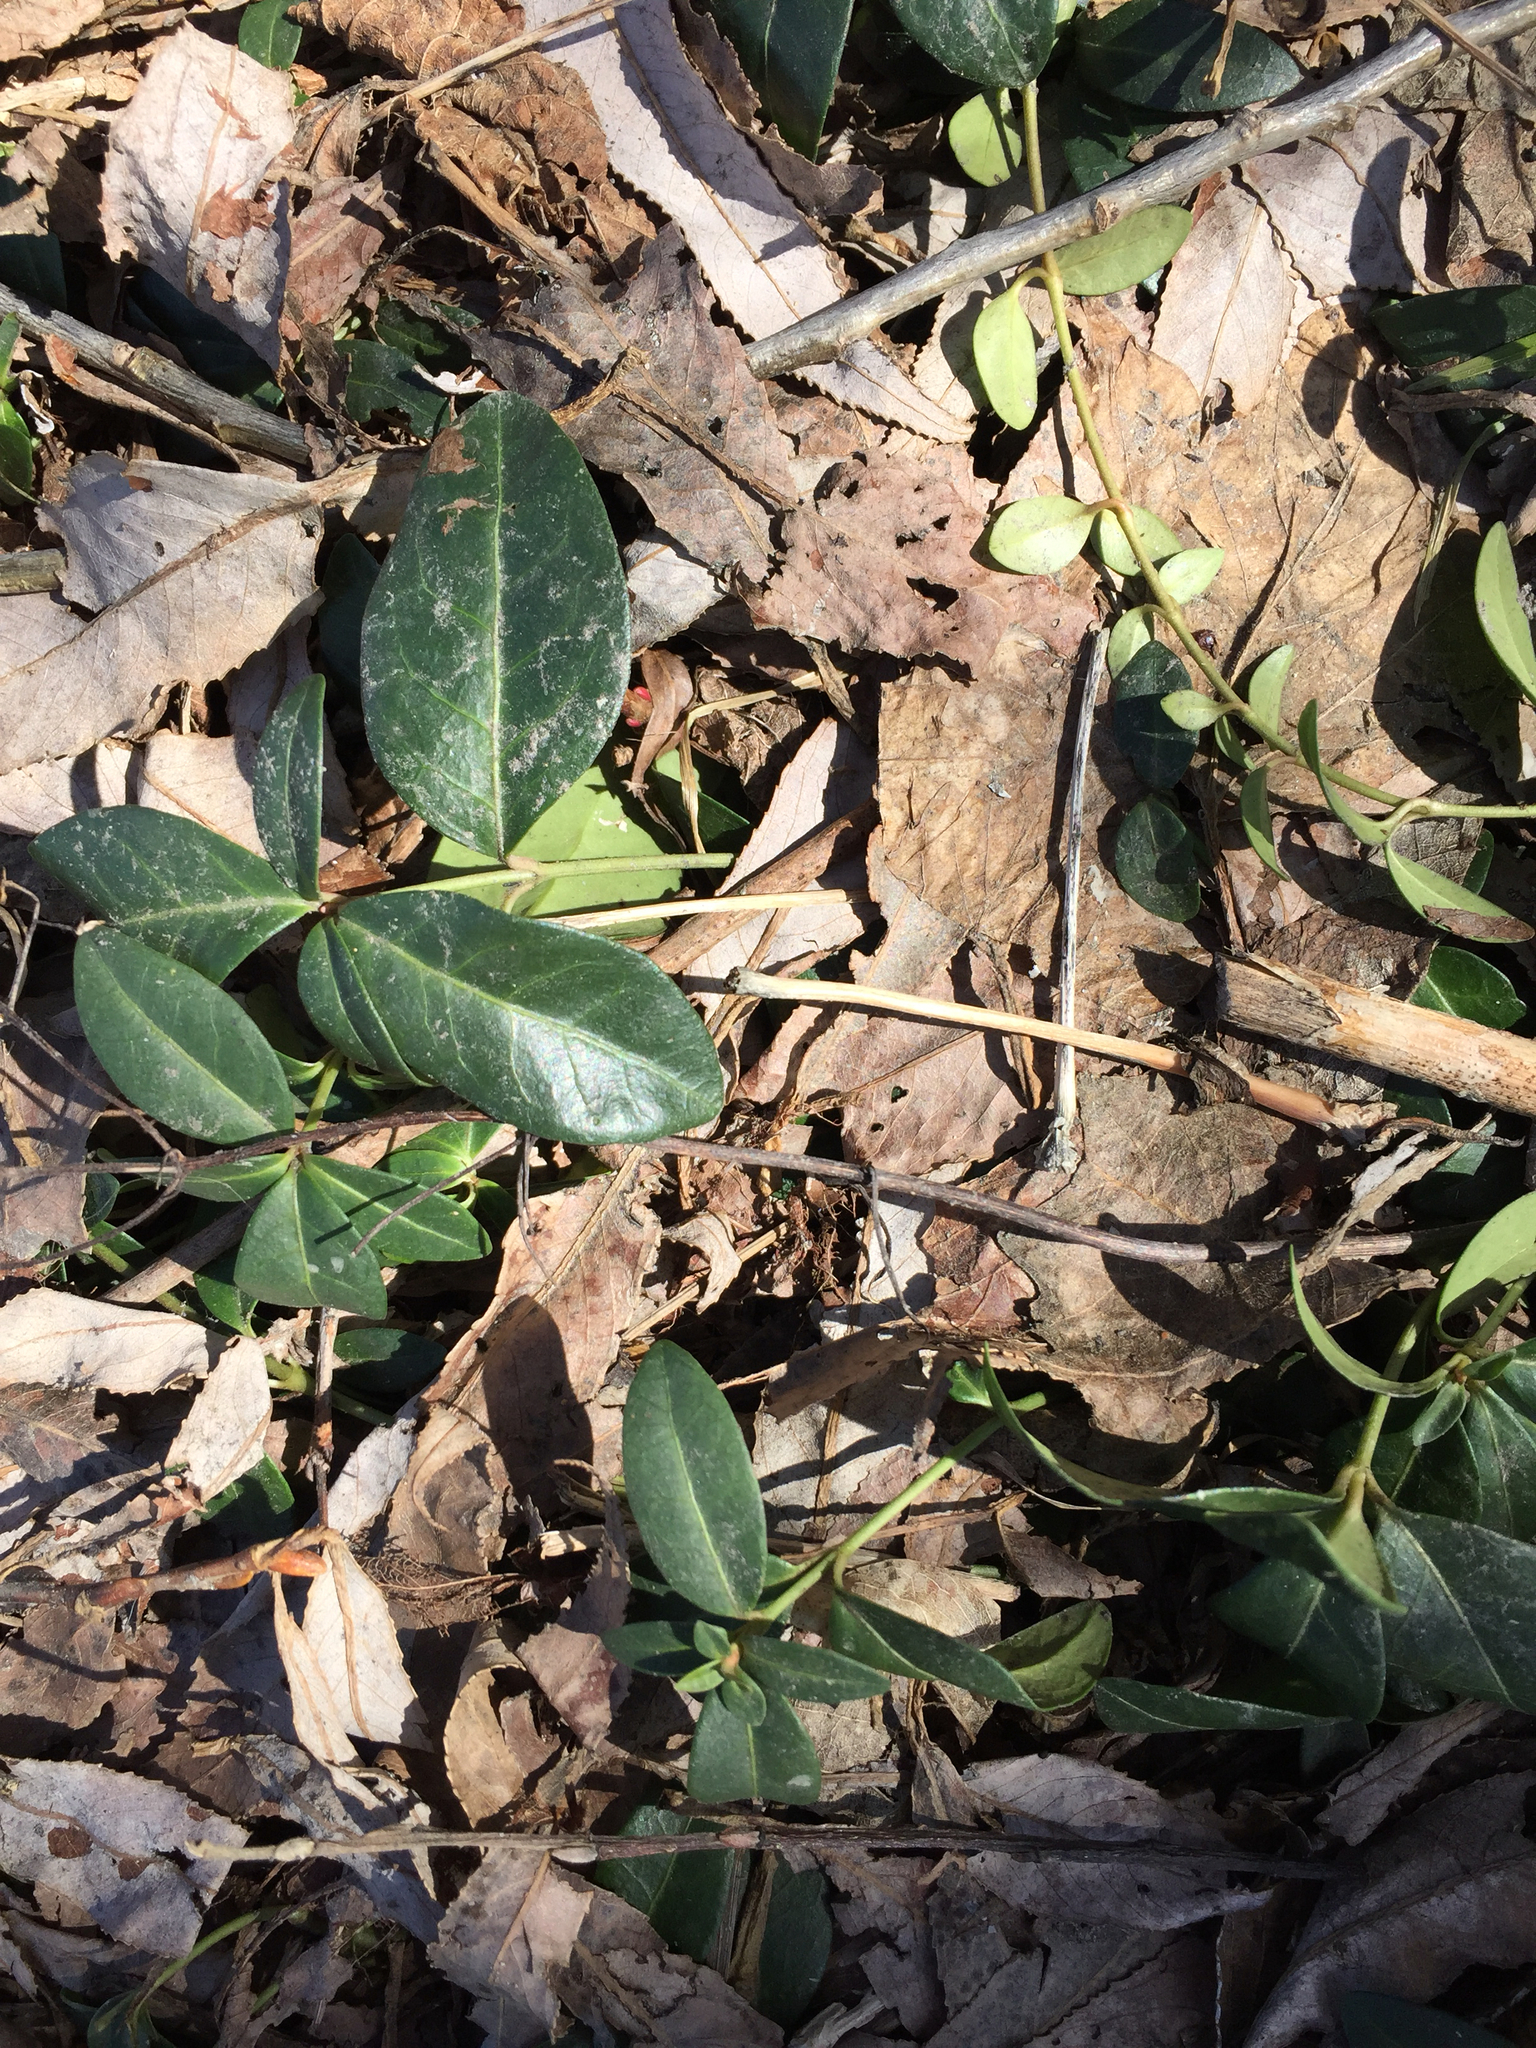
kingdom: Plantae
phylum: Tracheophyta
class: Magnoliopsida
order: Gentianales
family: Apocynaceae
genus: Vinca
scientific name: Vinca minor
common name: Lesser periwinkle
